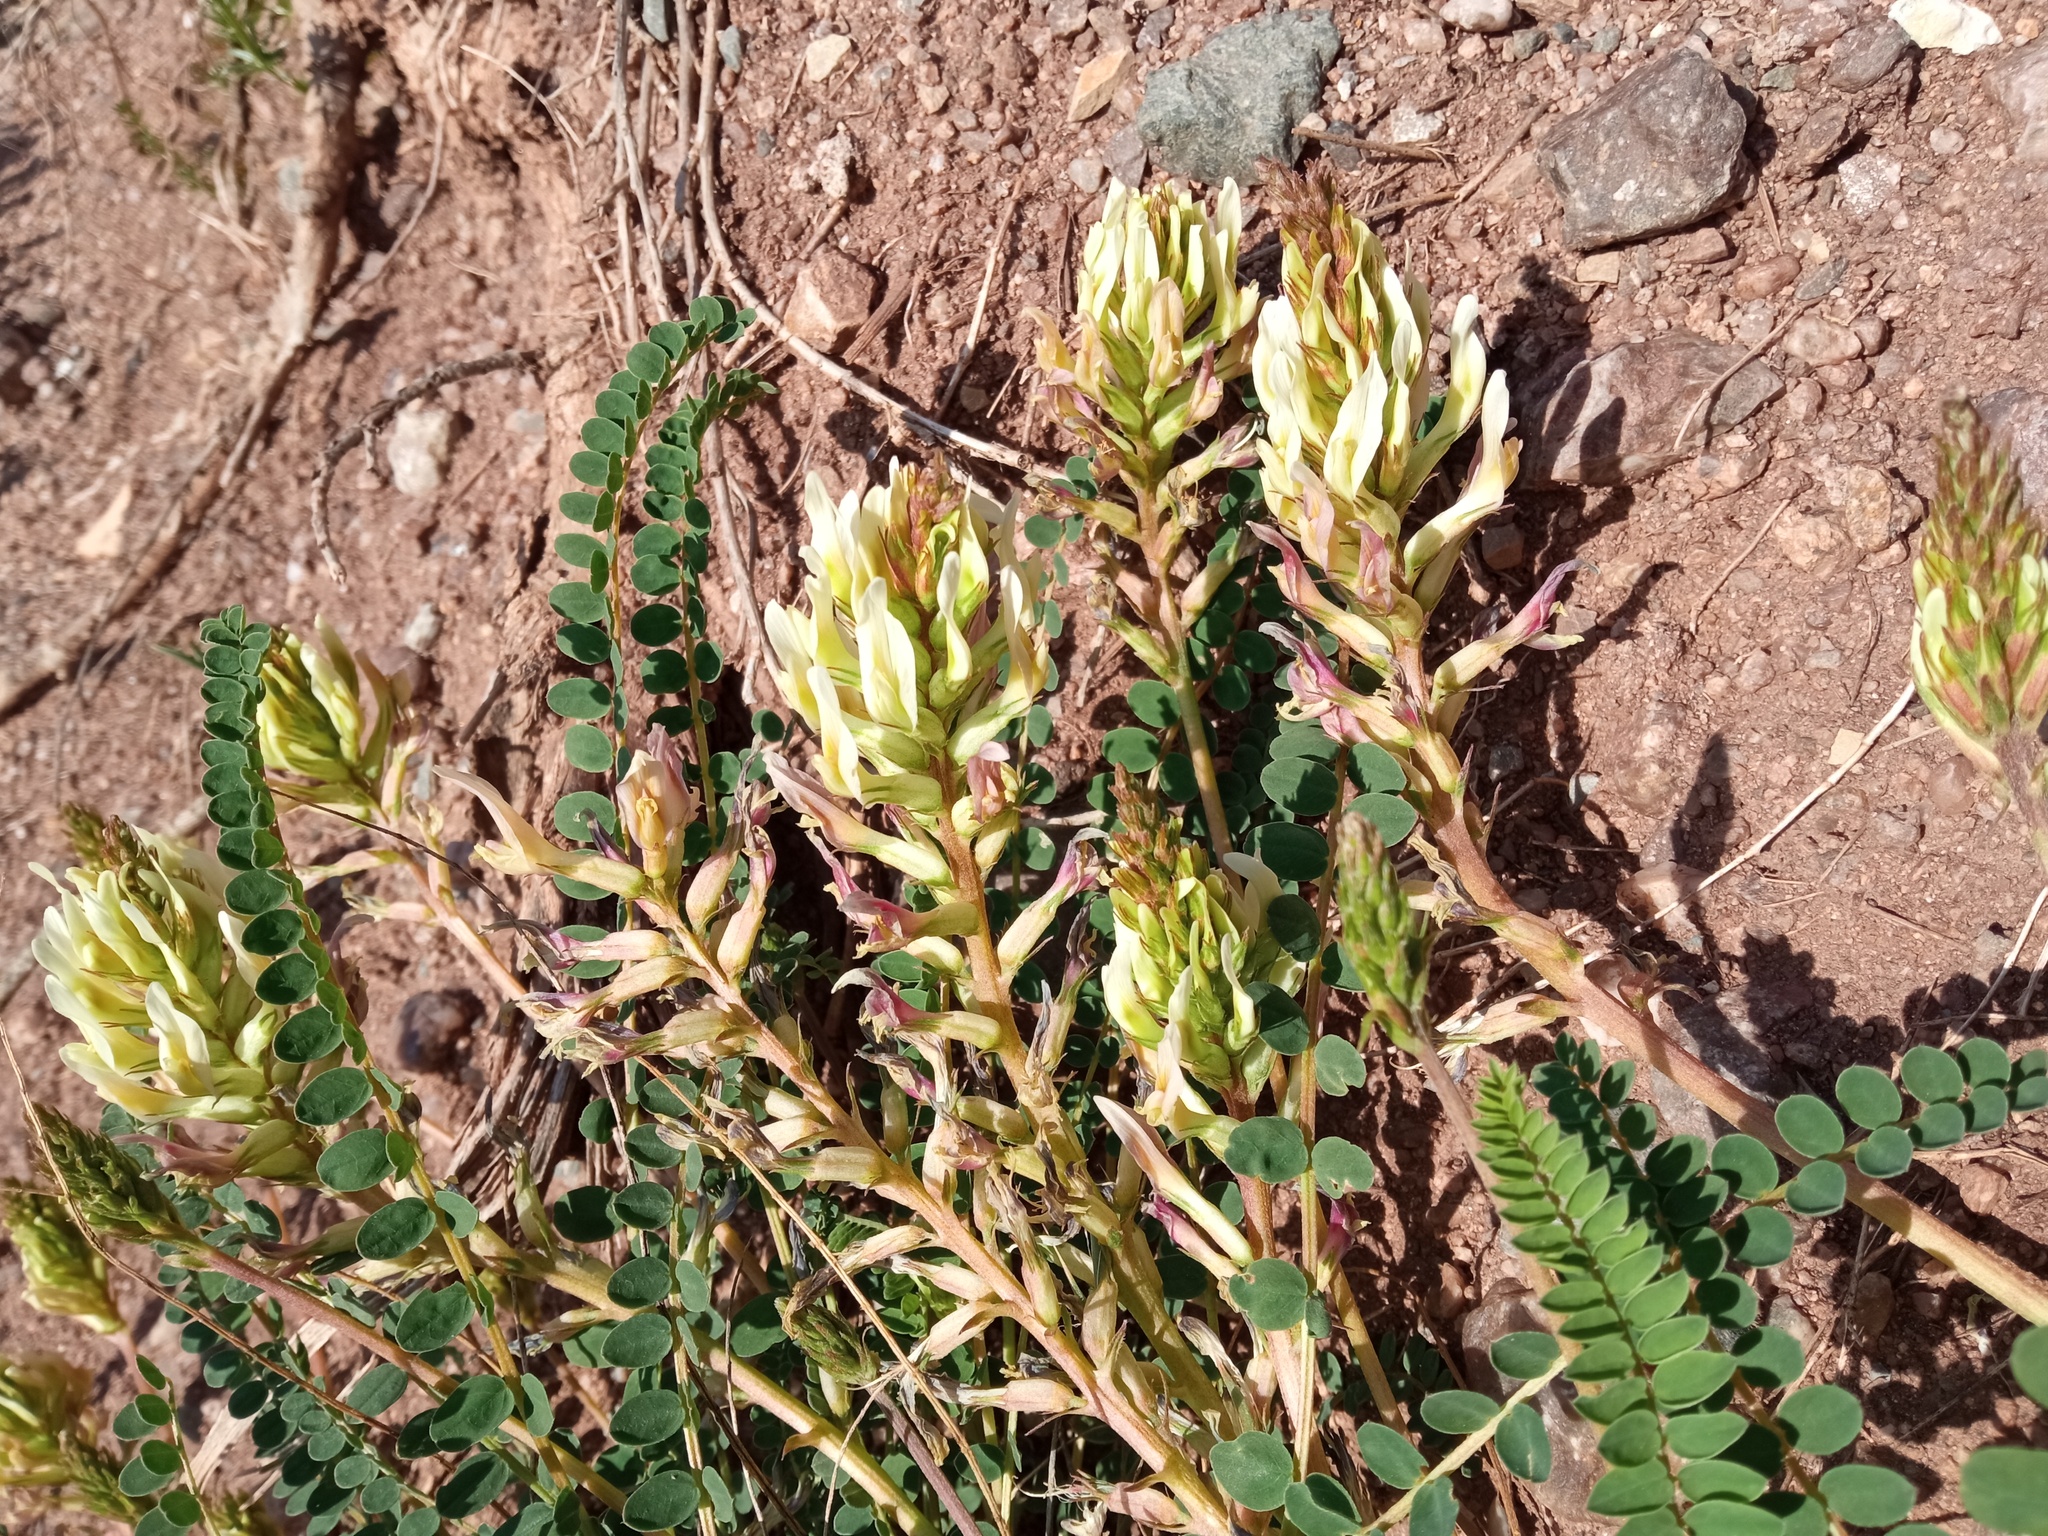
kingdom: Plantae
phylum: Tracheophyta
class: Magnoliopsida
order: Fabales
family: Fabaceae
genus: Astragalus
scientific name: Astragalus monspessulanus
